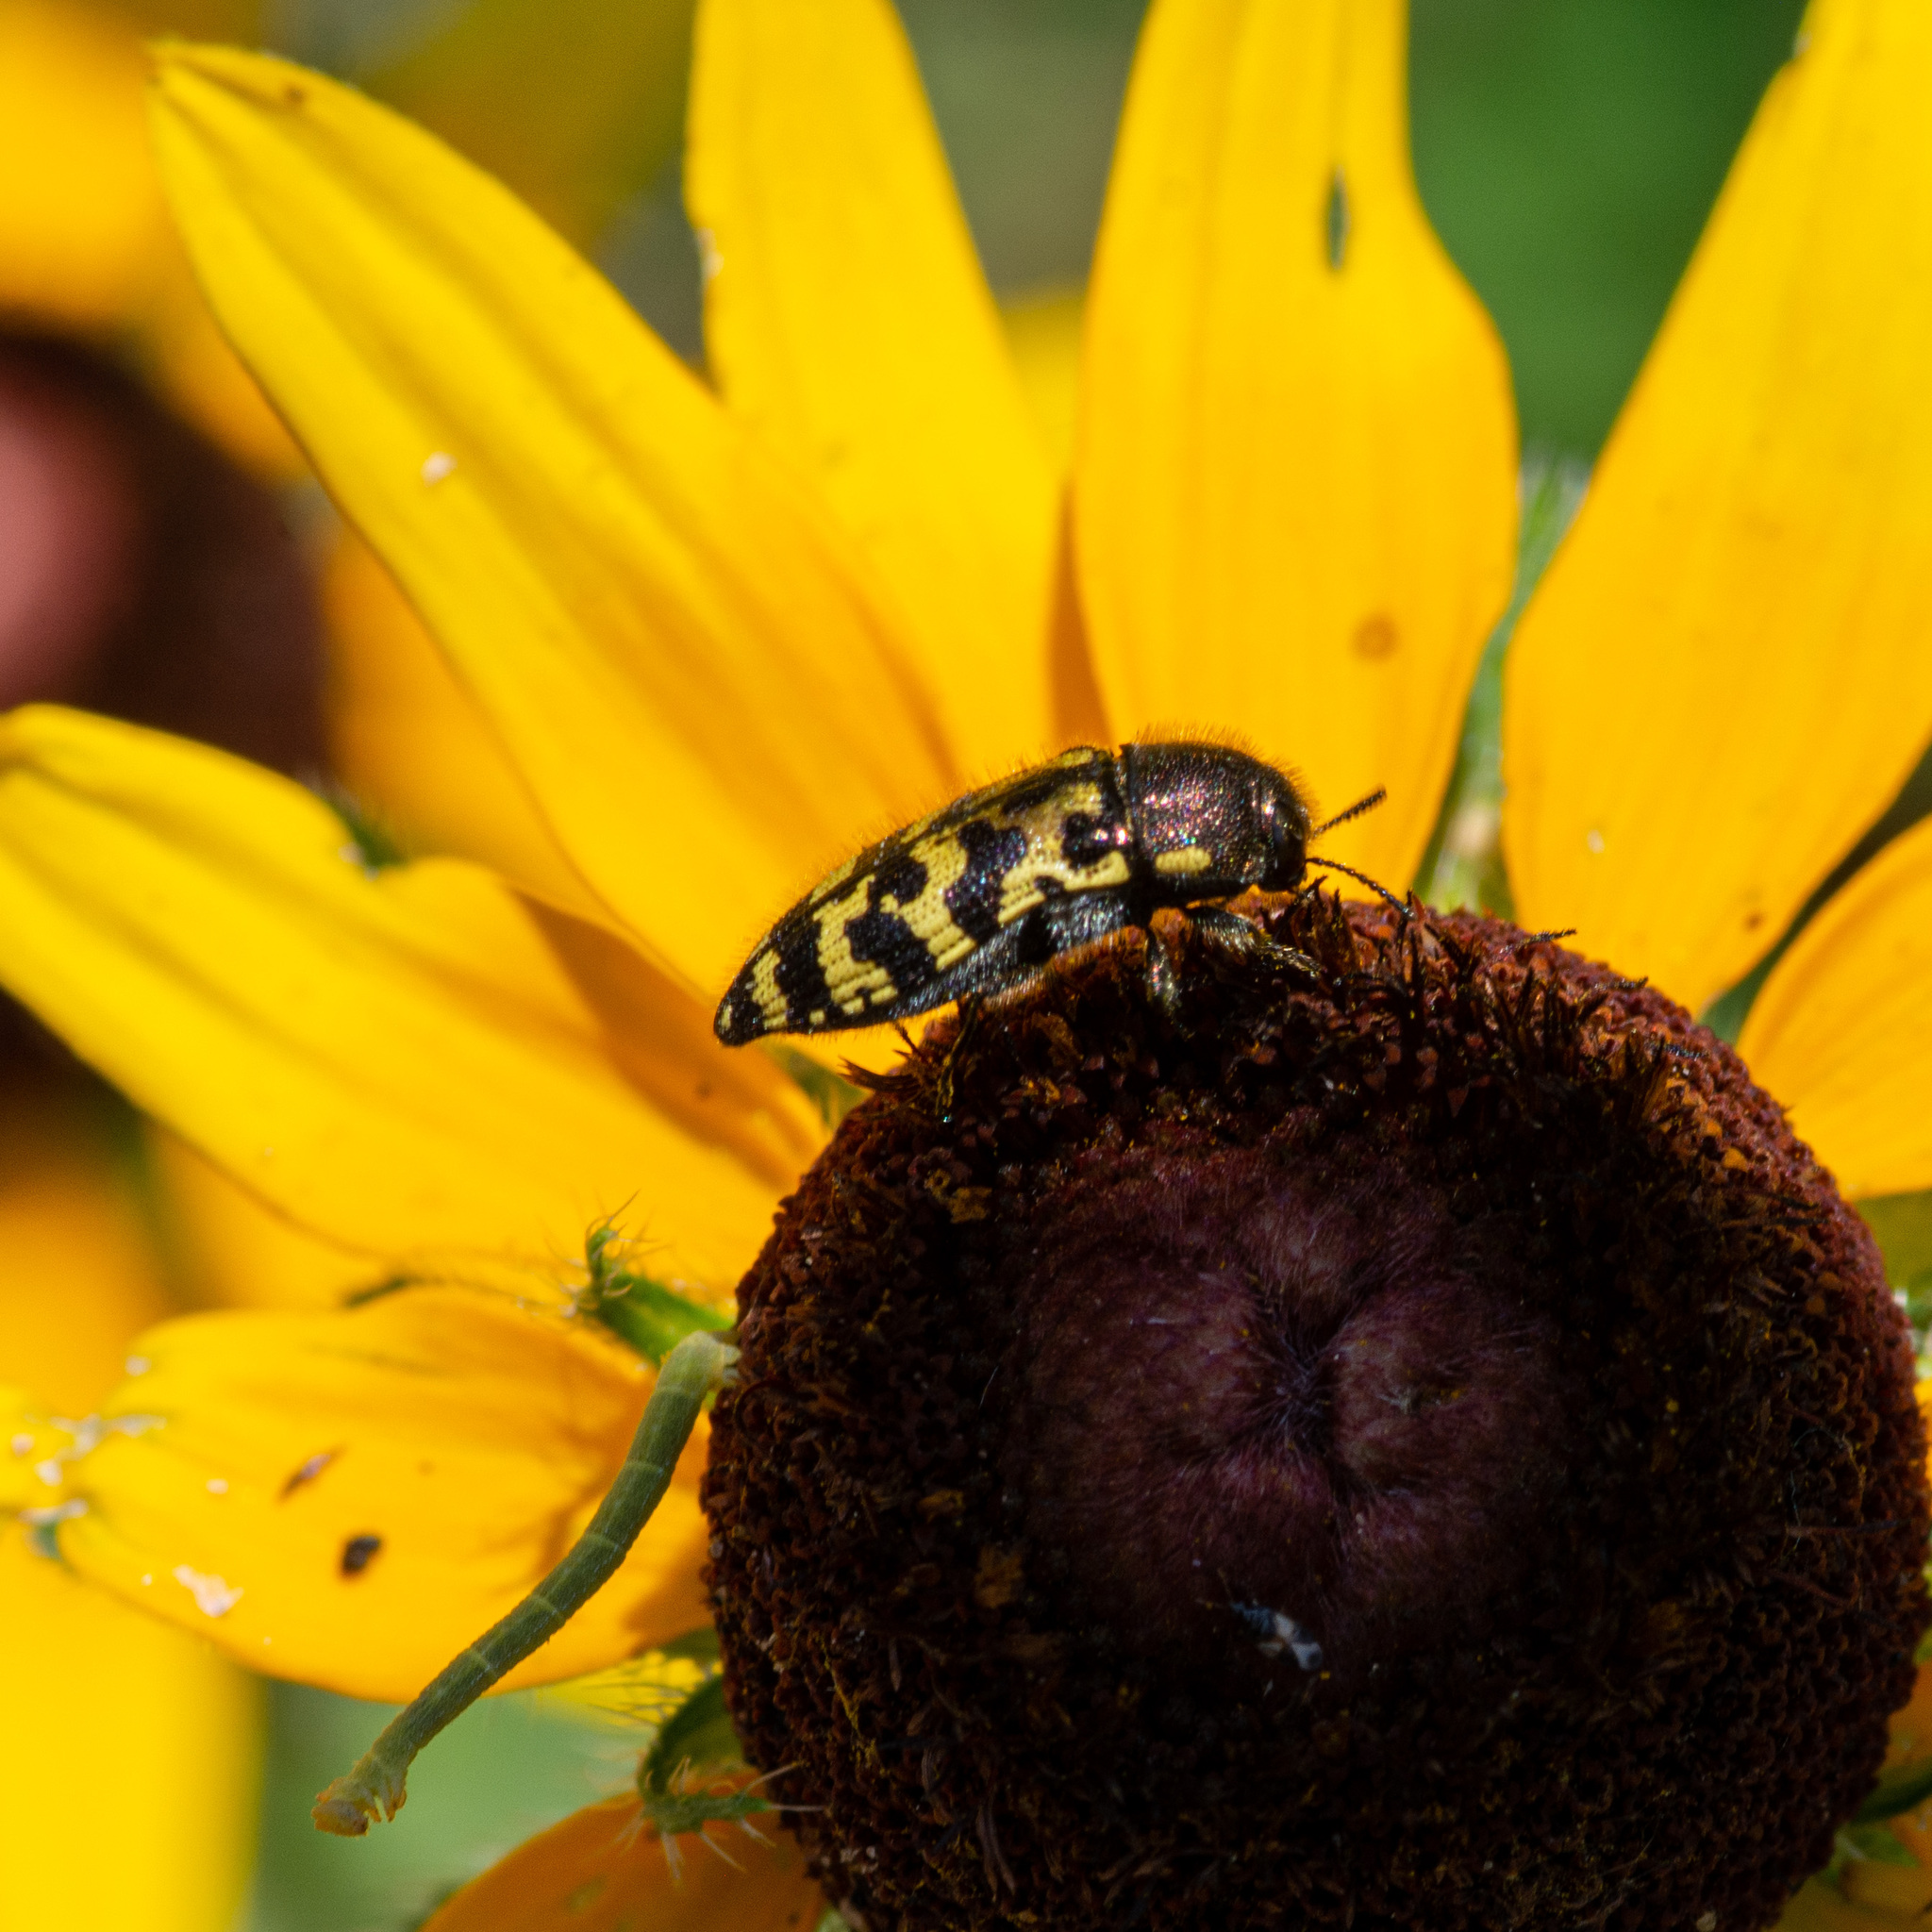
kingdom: Animalia
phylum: Arthropoda
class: Insecta
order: Coleoptera
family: Buprestidae
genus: Acmaeodera
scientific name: Acmaeodera mixta
